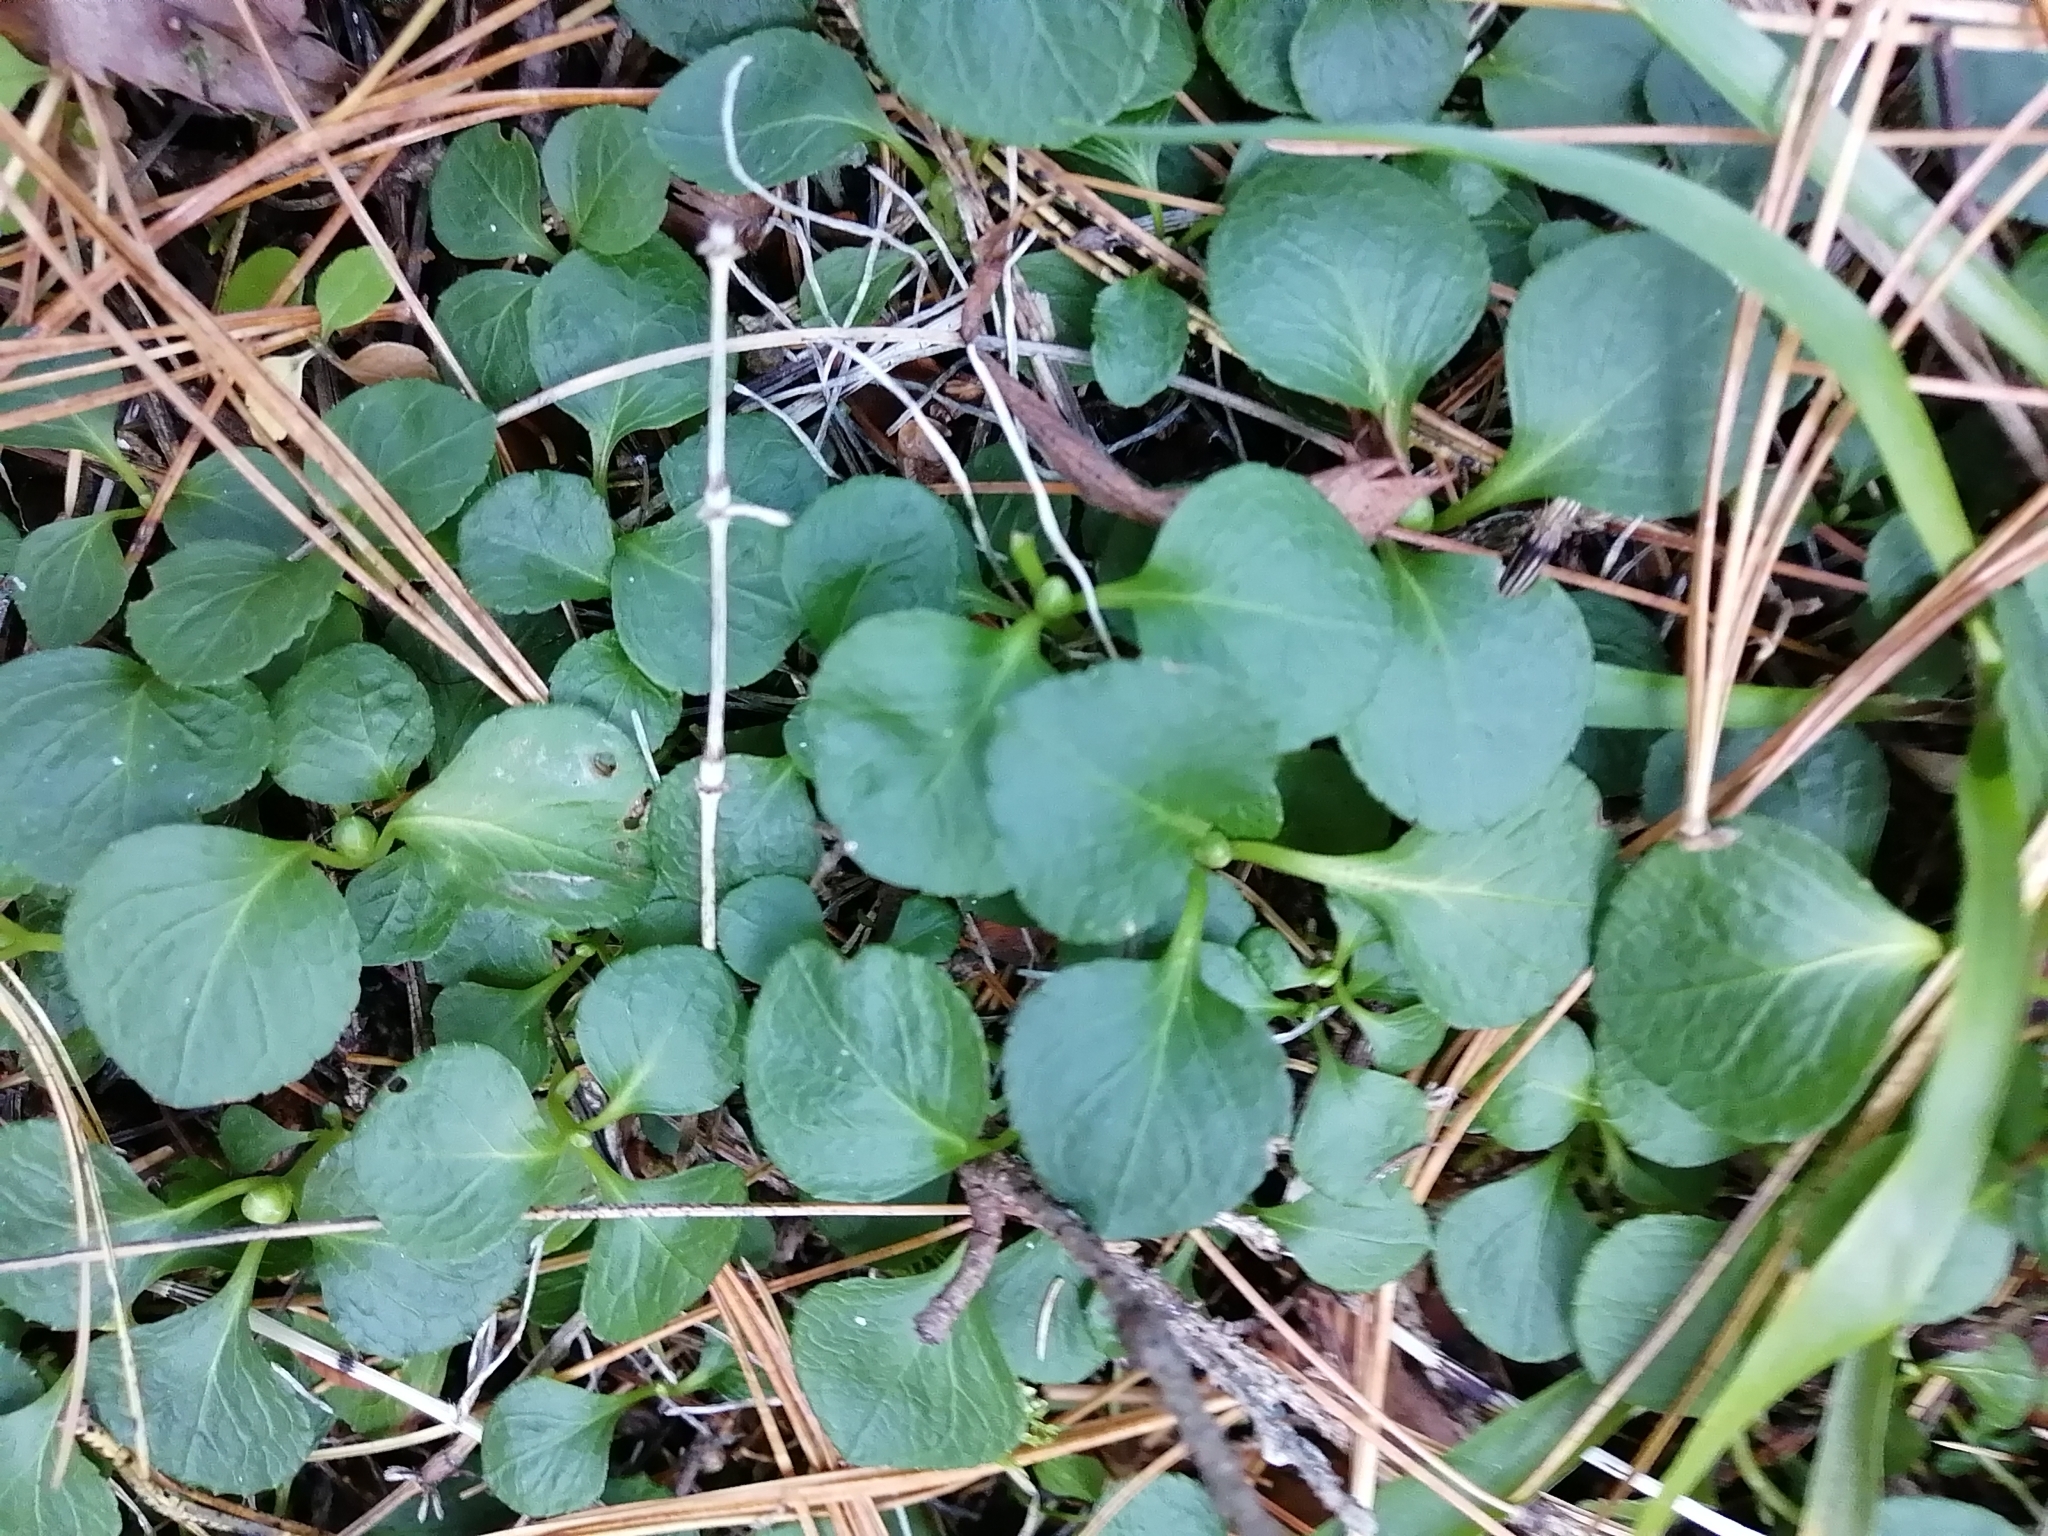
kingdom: Plantae
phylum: Tracheophyta
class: Magnoliopsida
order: Ericales
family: Ericaceae
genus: Moneses
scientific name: Moneses uniflora
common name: One-flowered wintergreen
